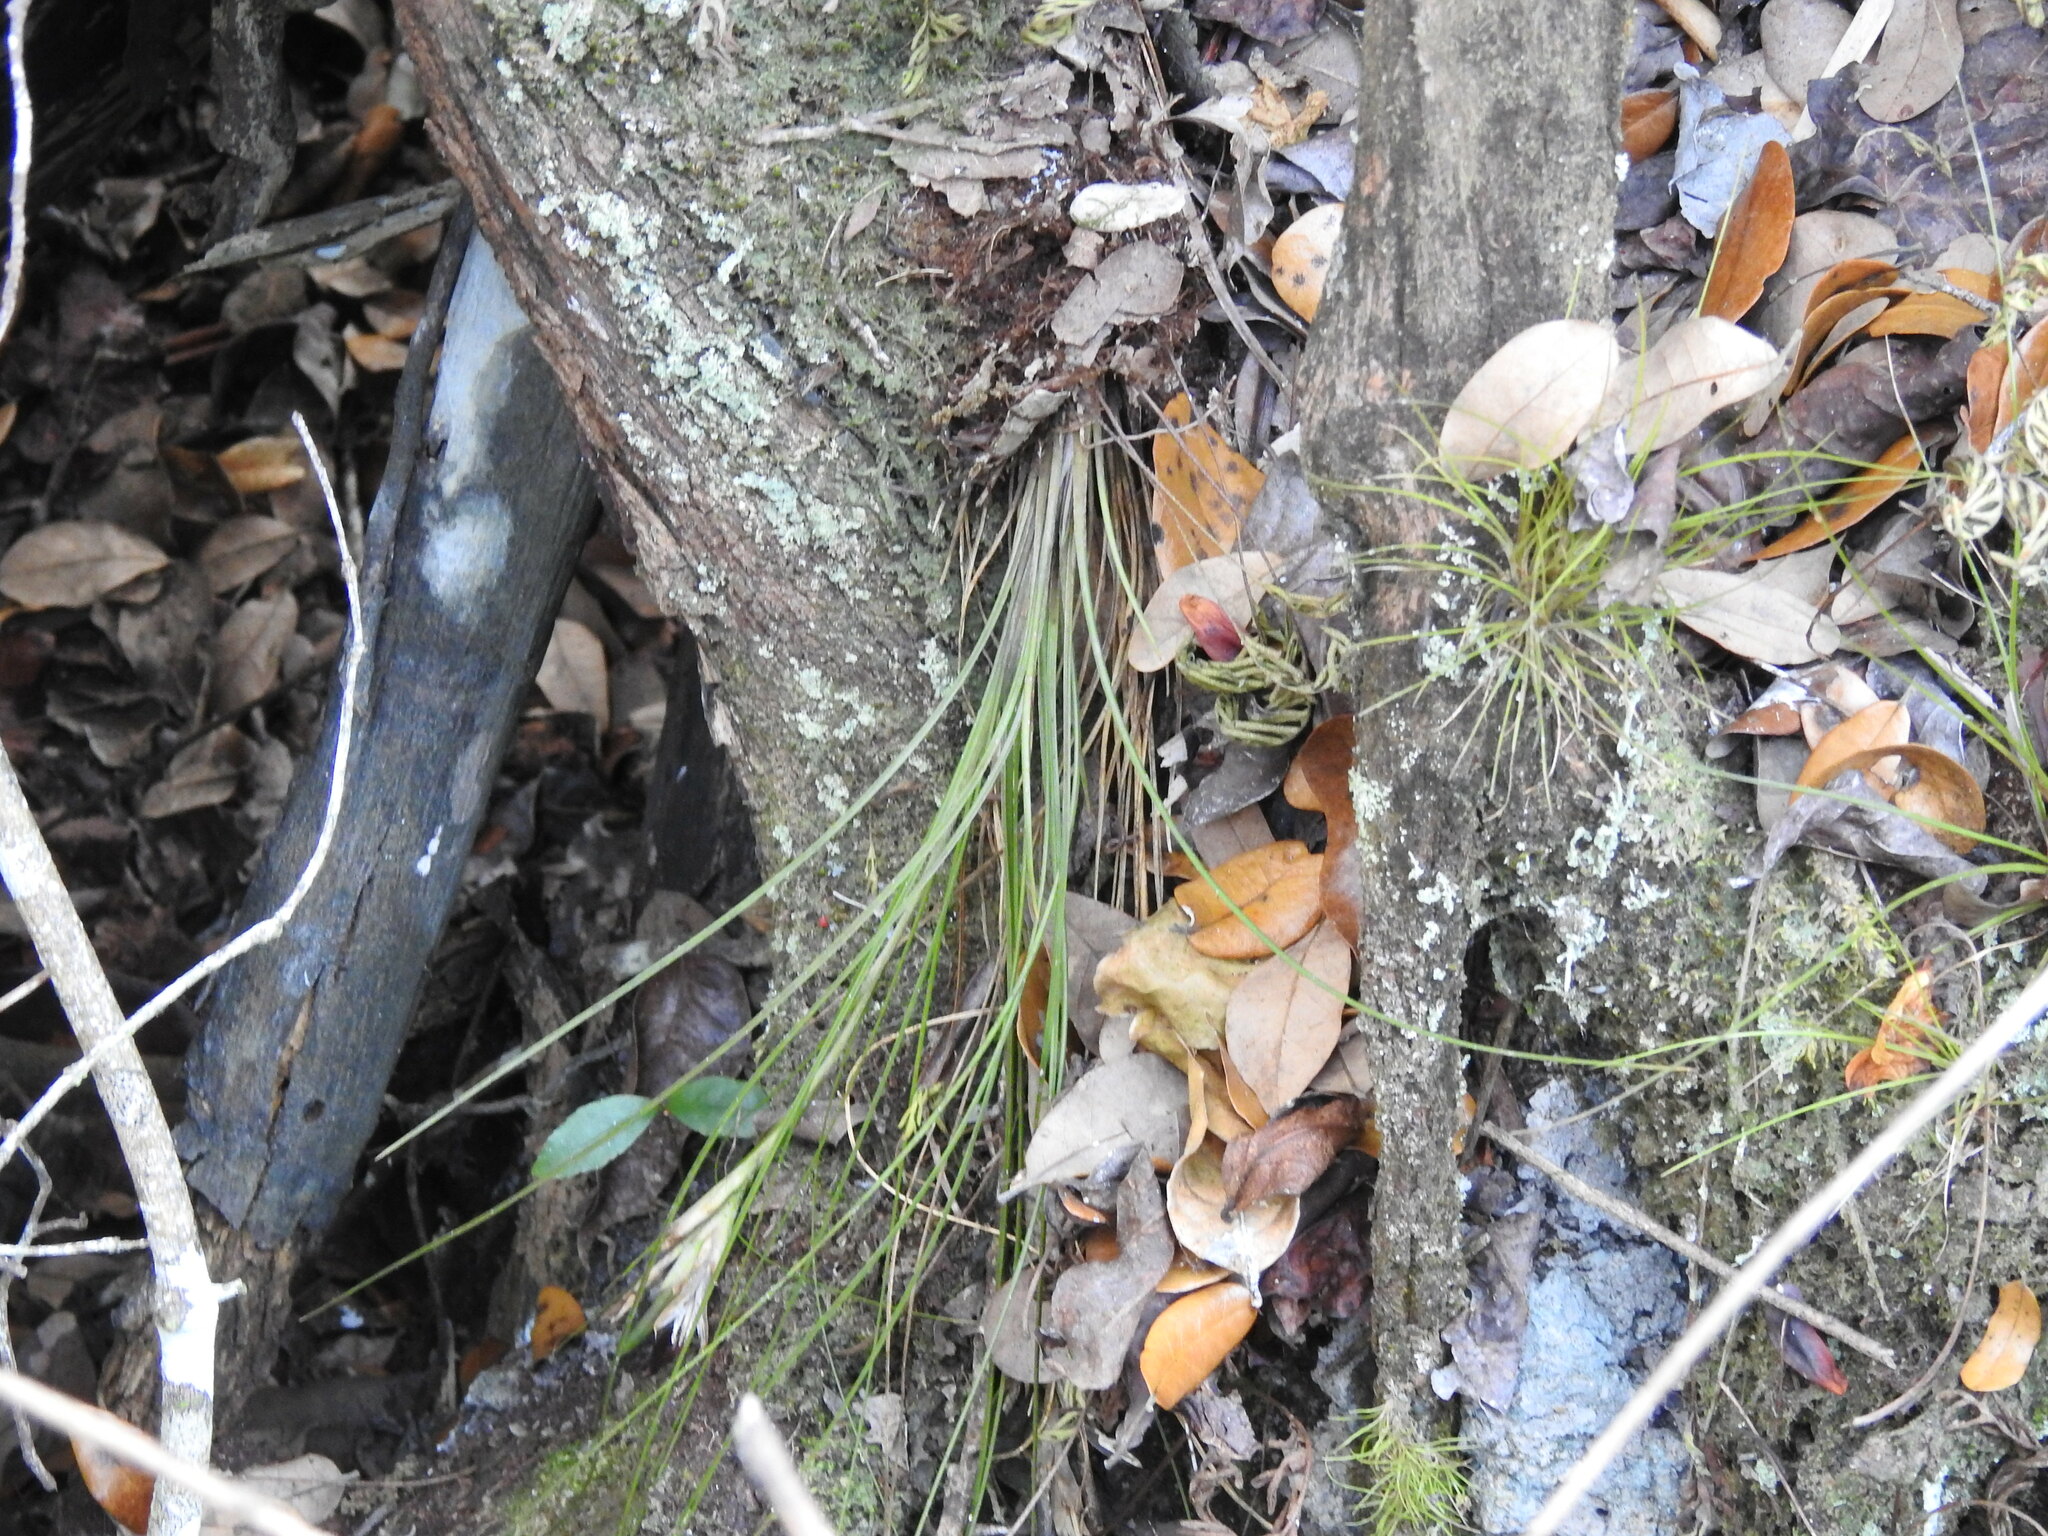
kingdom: Plantae
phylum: Tracheophyta
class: Liliopsida
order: Poales
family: Bromeliaceae
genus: Tillandsia
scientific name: Tillandsia setacea
